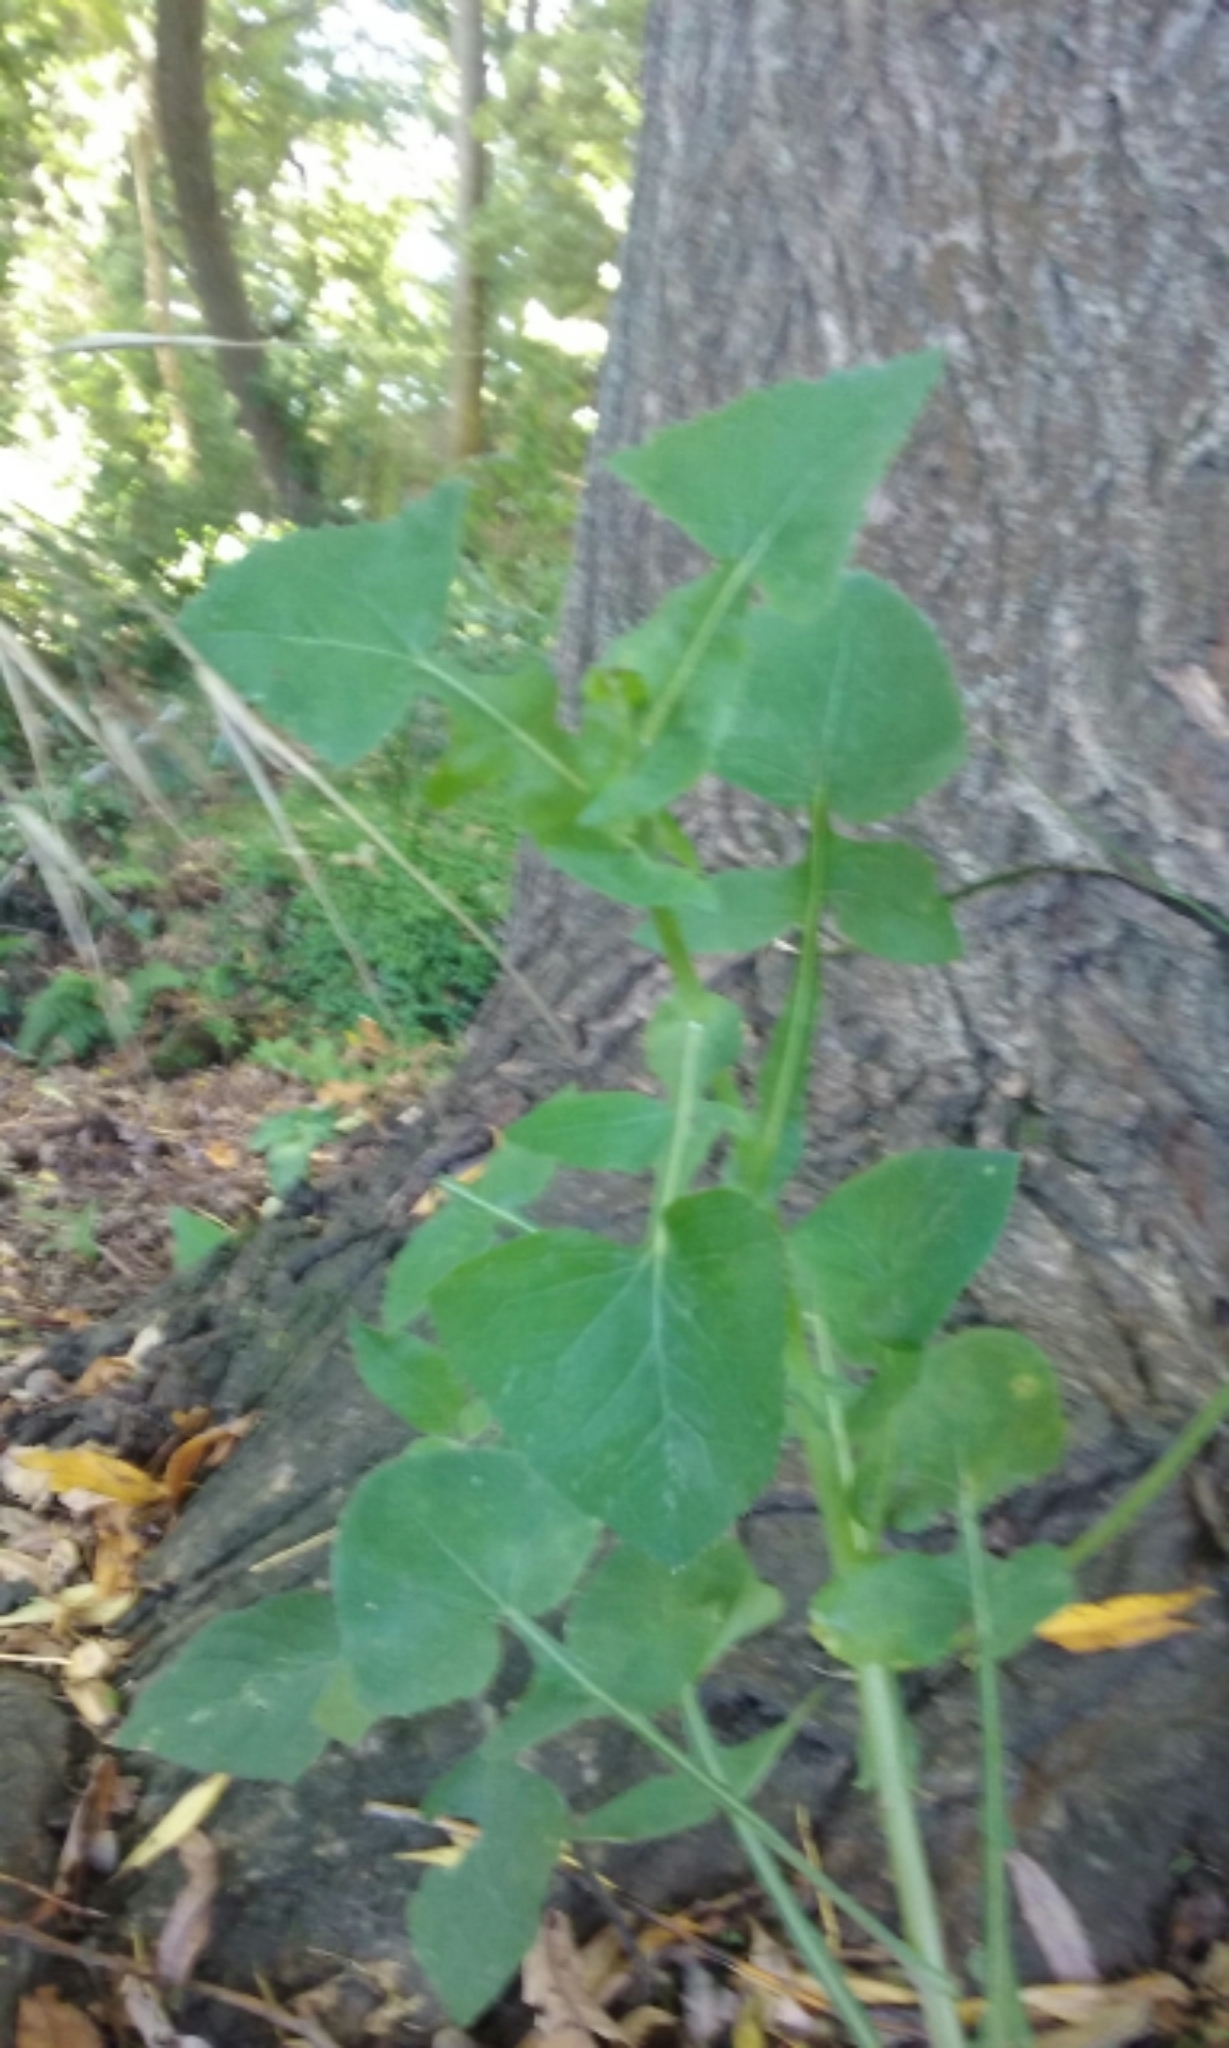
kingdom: Plantae
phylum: Tracheophyta
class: Magnoliopsida
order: Asterales
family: Asteraceae
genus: Sonchus
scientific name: Sonchus oleraceus
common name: Common sowthistle
